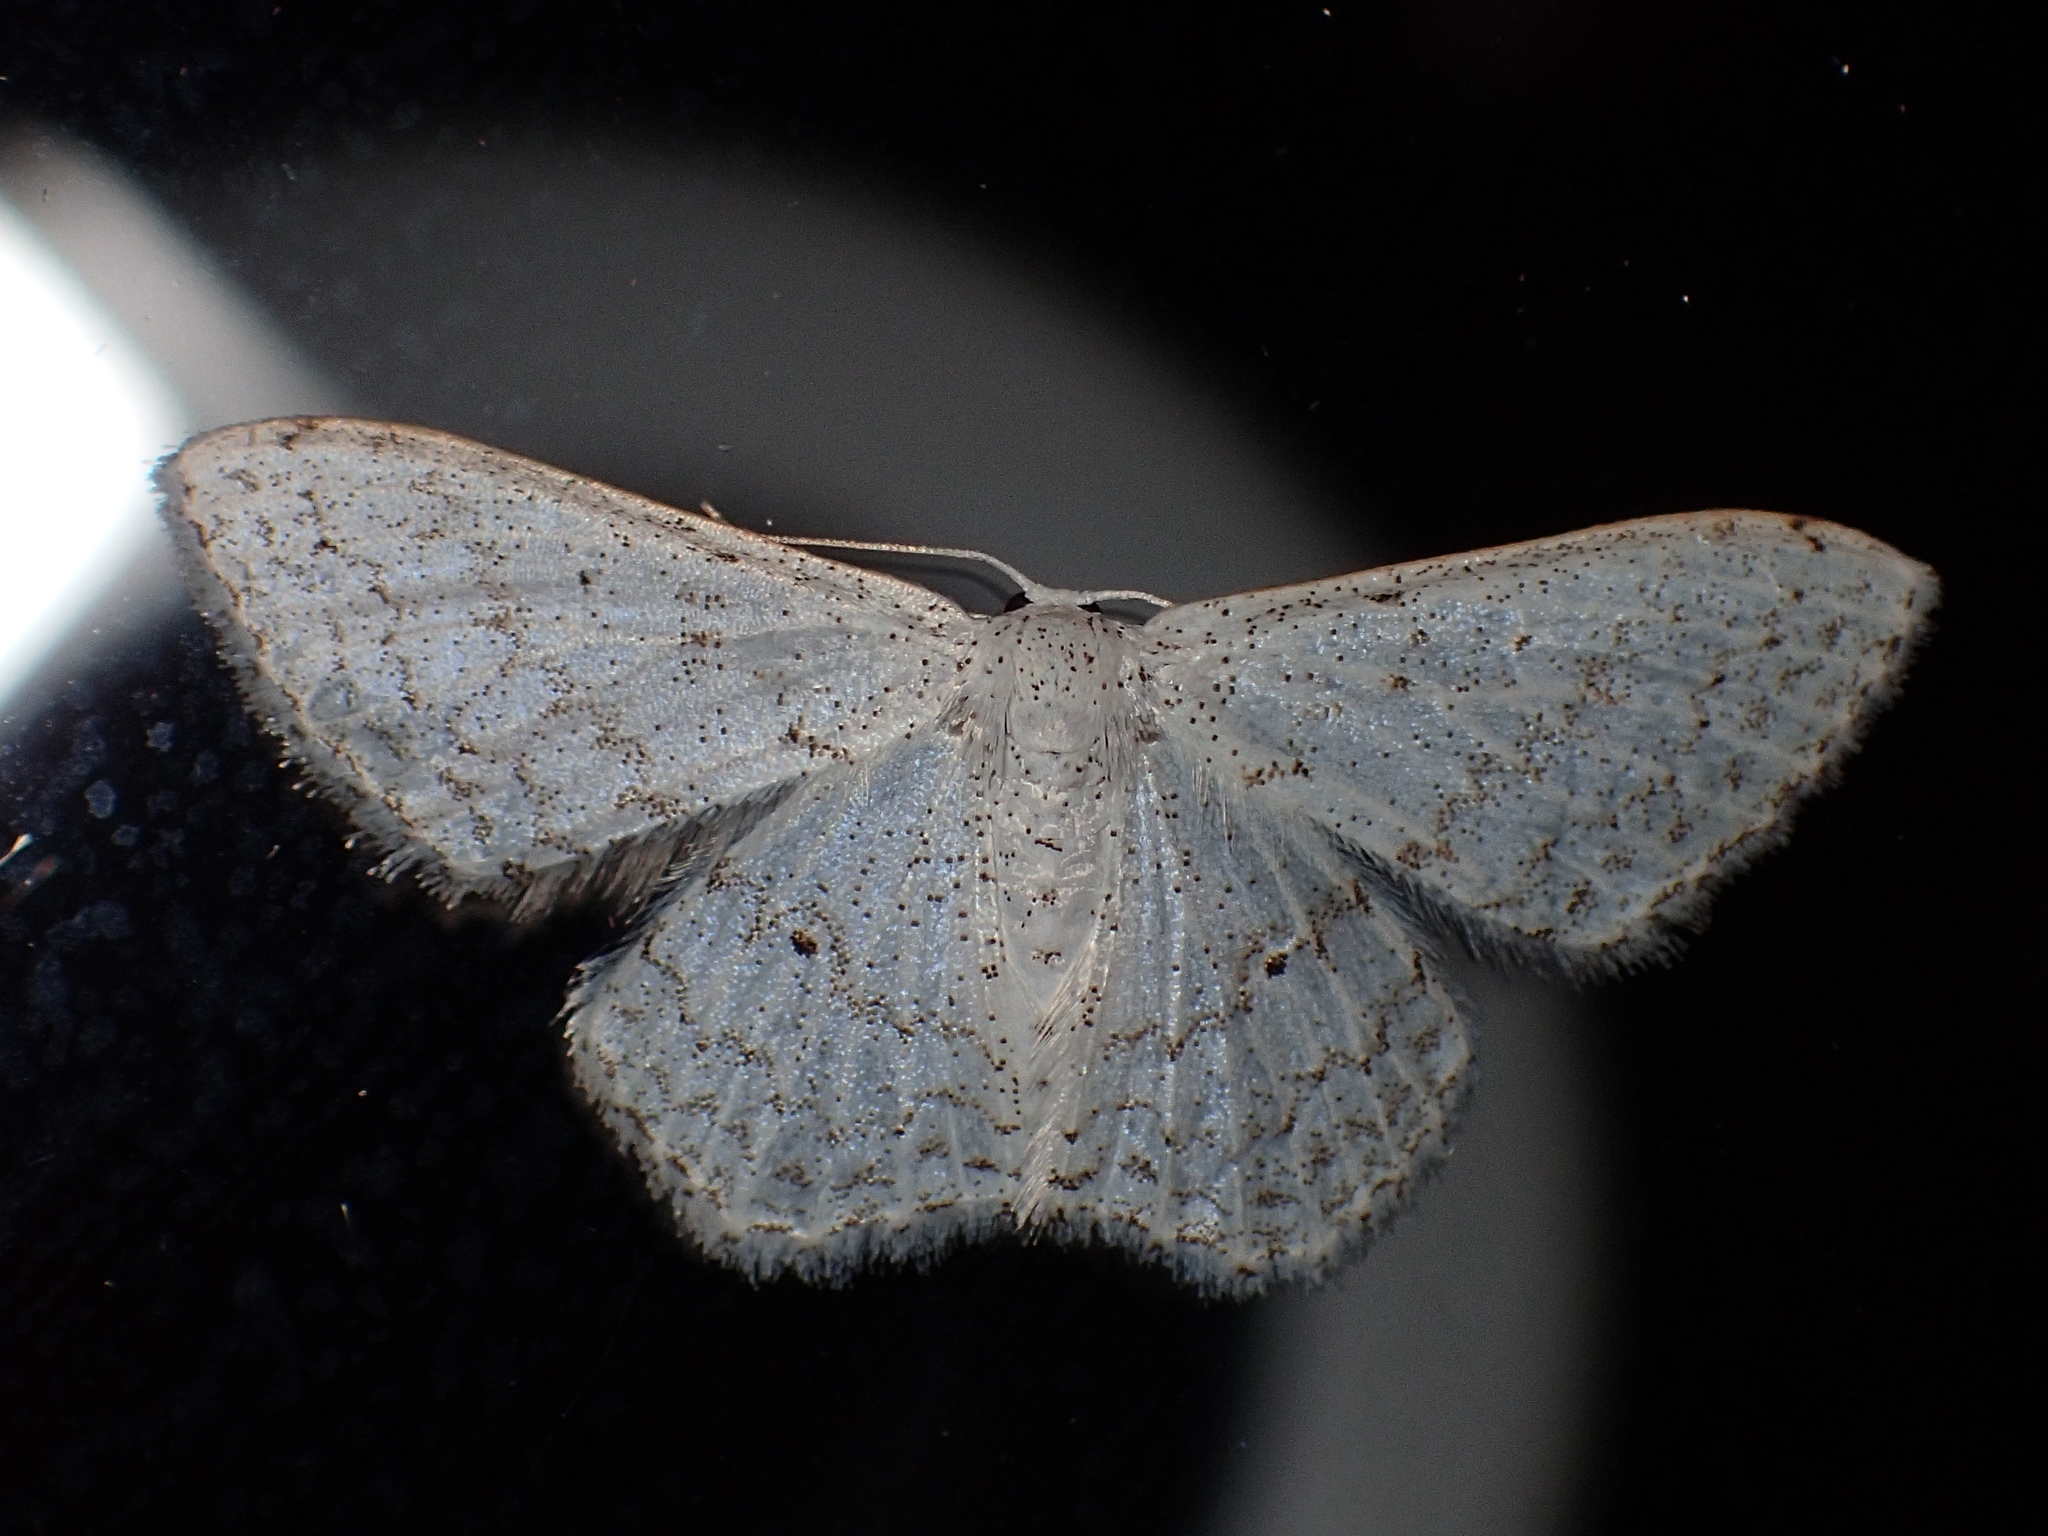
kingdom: Animalia
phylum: Arthropoda
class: Insecta
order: Lepidoptera
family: Geometridae
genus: Idaea
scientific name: Idaea tacturata
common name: Dot-lined wave
